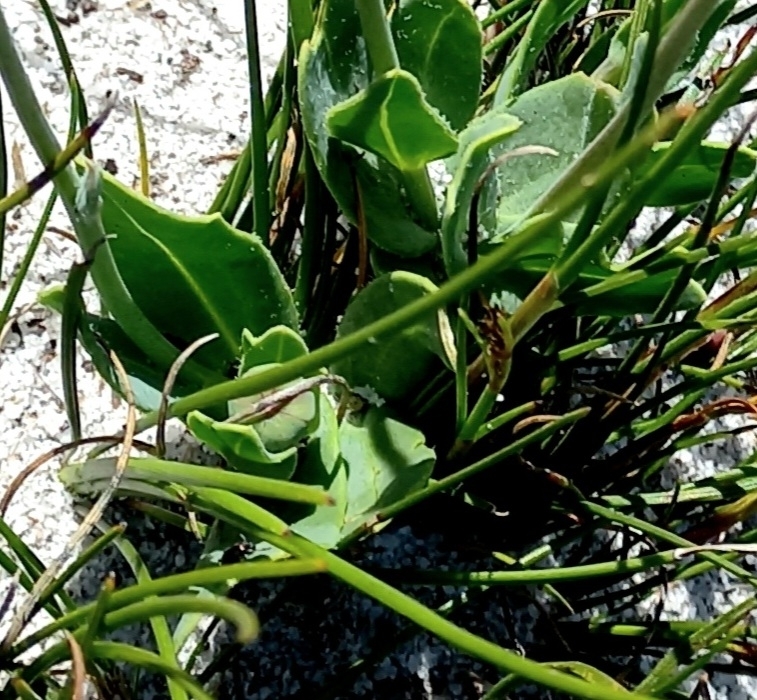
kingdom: Plantae
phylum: Tracheophyta
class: Liliopsida
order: Liliales
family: Colchicaceae
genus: Ornithoglossum
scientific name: Ornithoglossum viride
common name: Cape poison-onion
